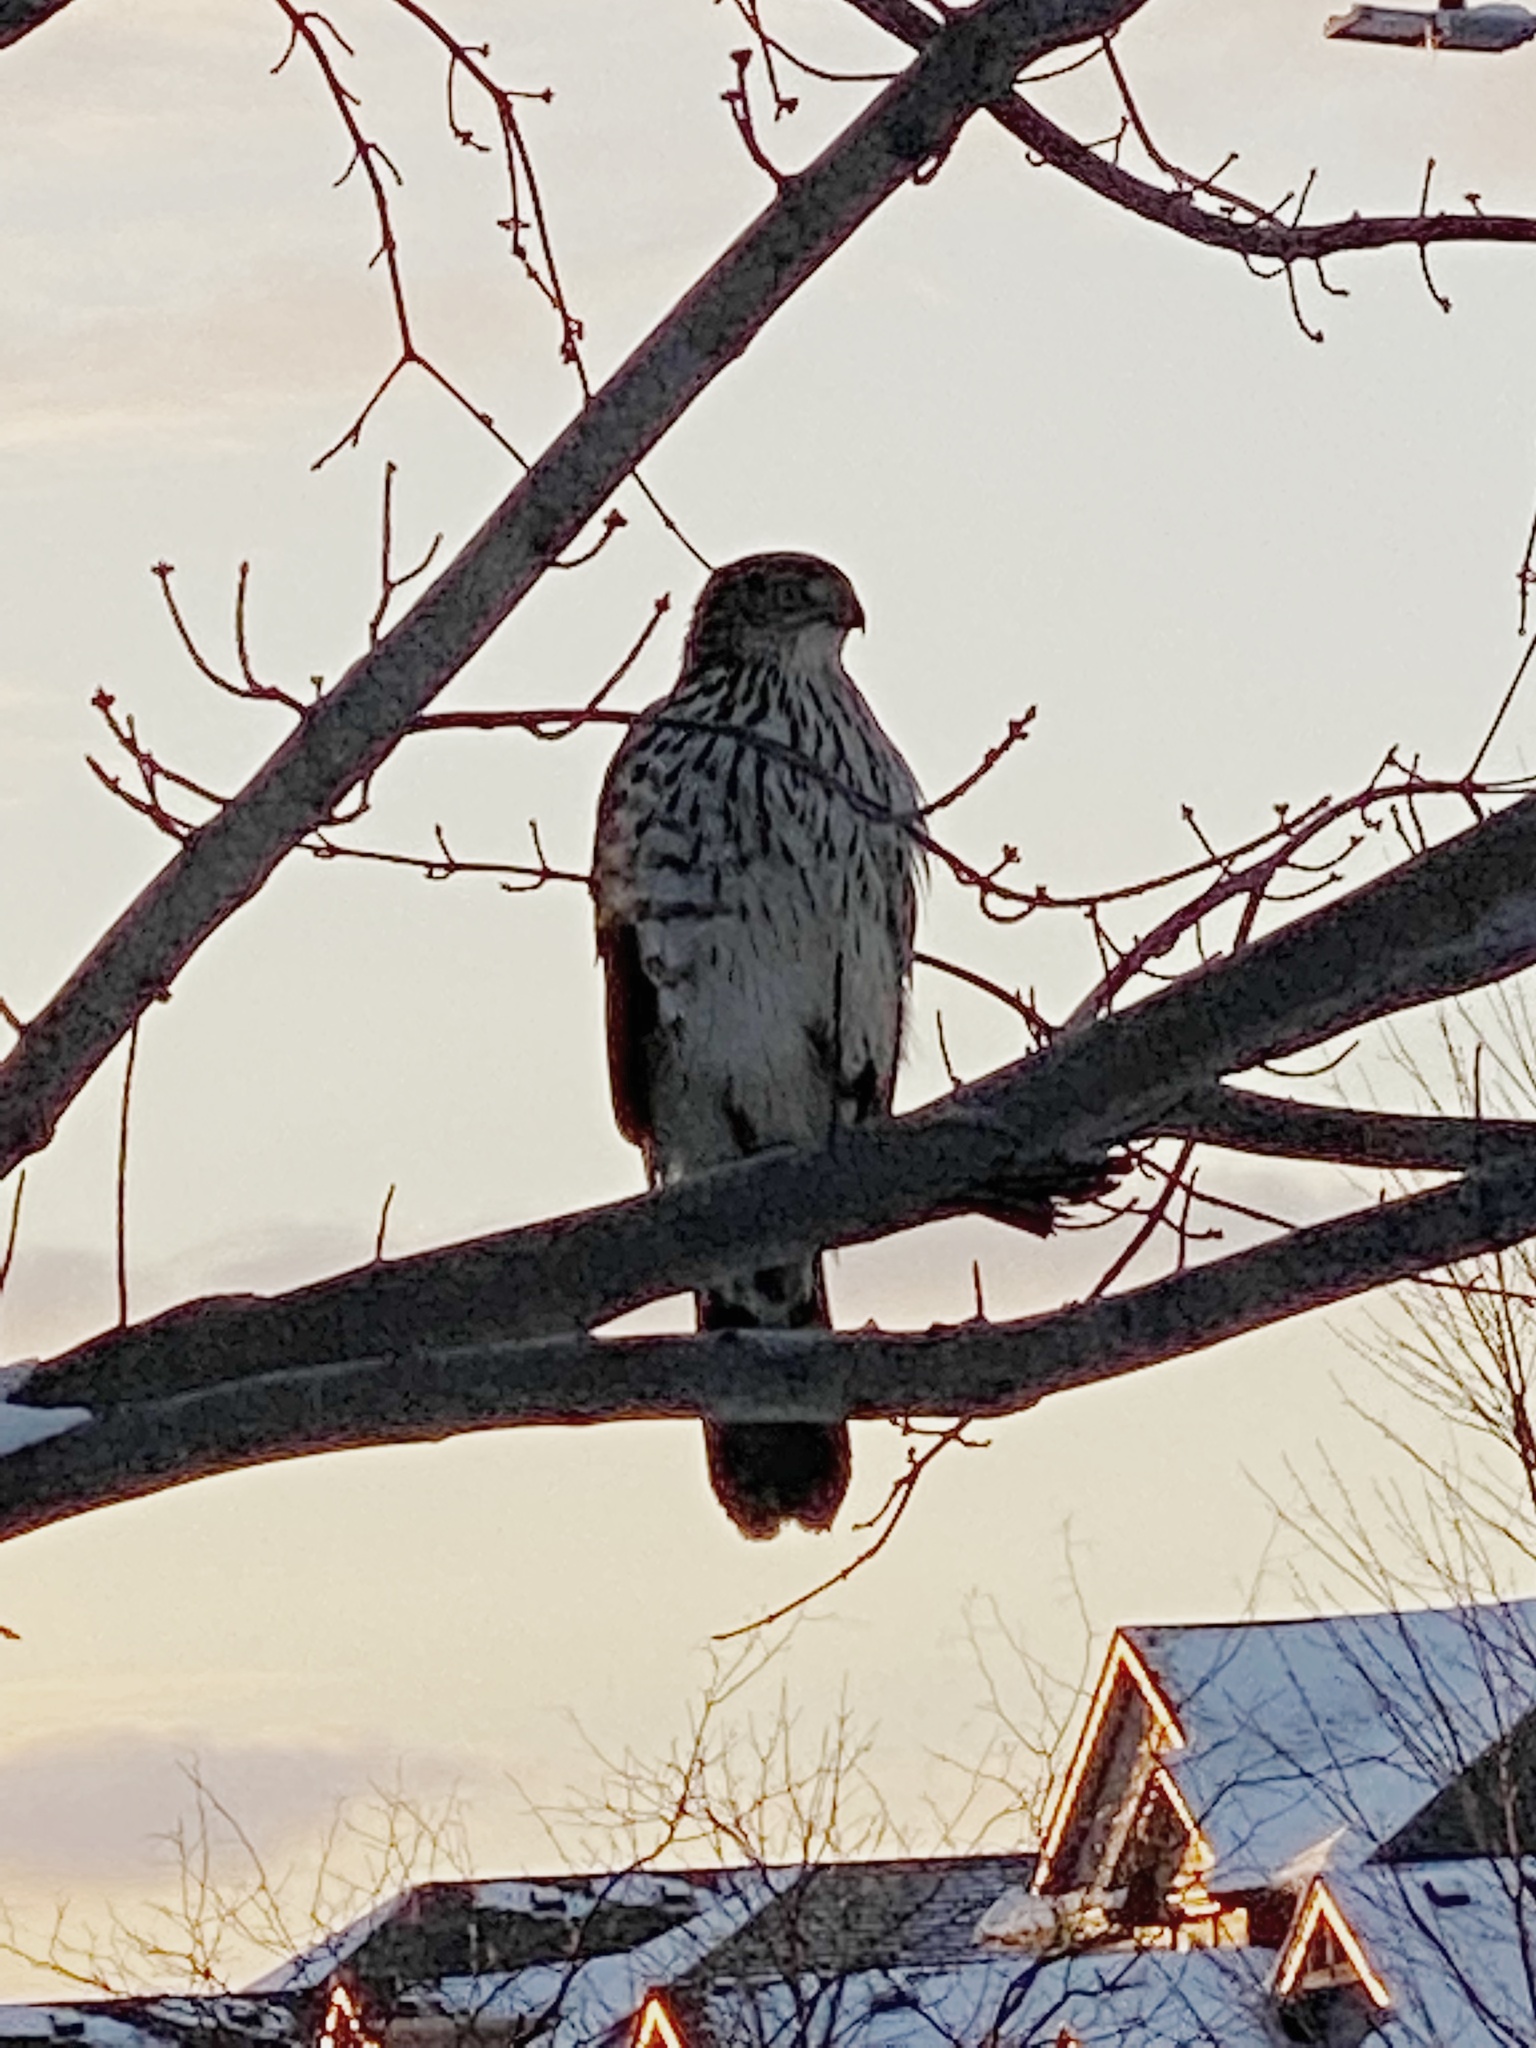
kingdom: Animalia
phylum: Chordata
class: Aves
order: Accipitriformes
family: Accipitridae
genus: Accipiter
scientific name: Accipiter cooperii
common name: Cooper's hawk
